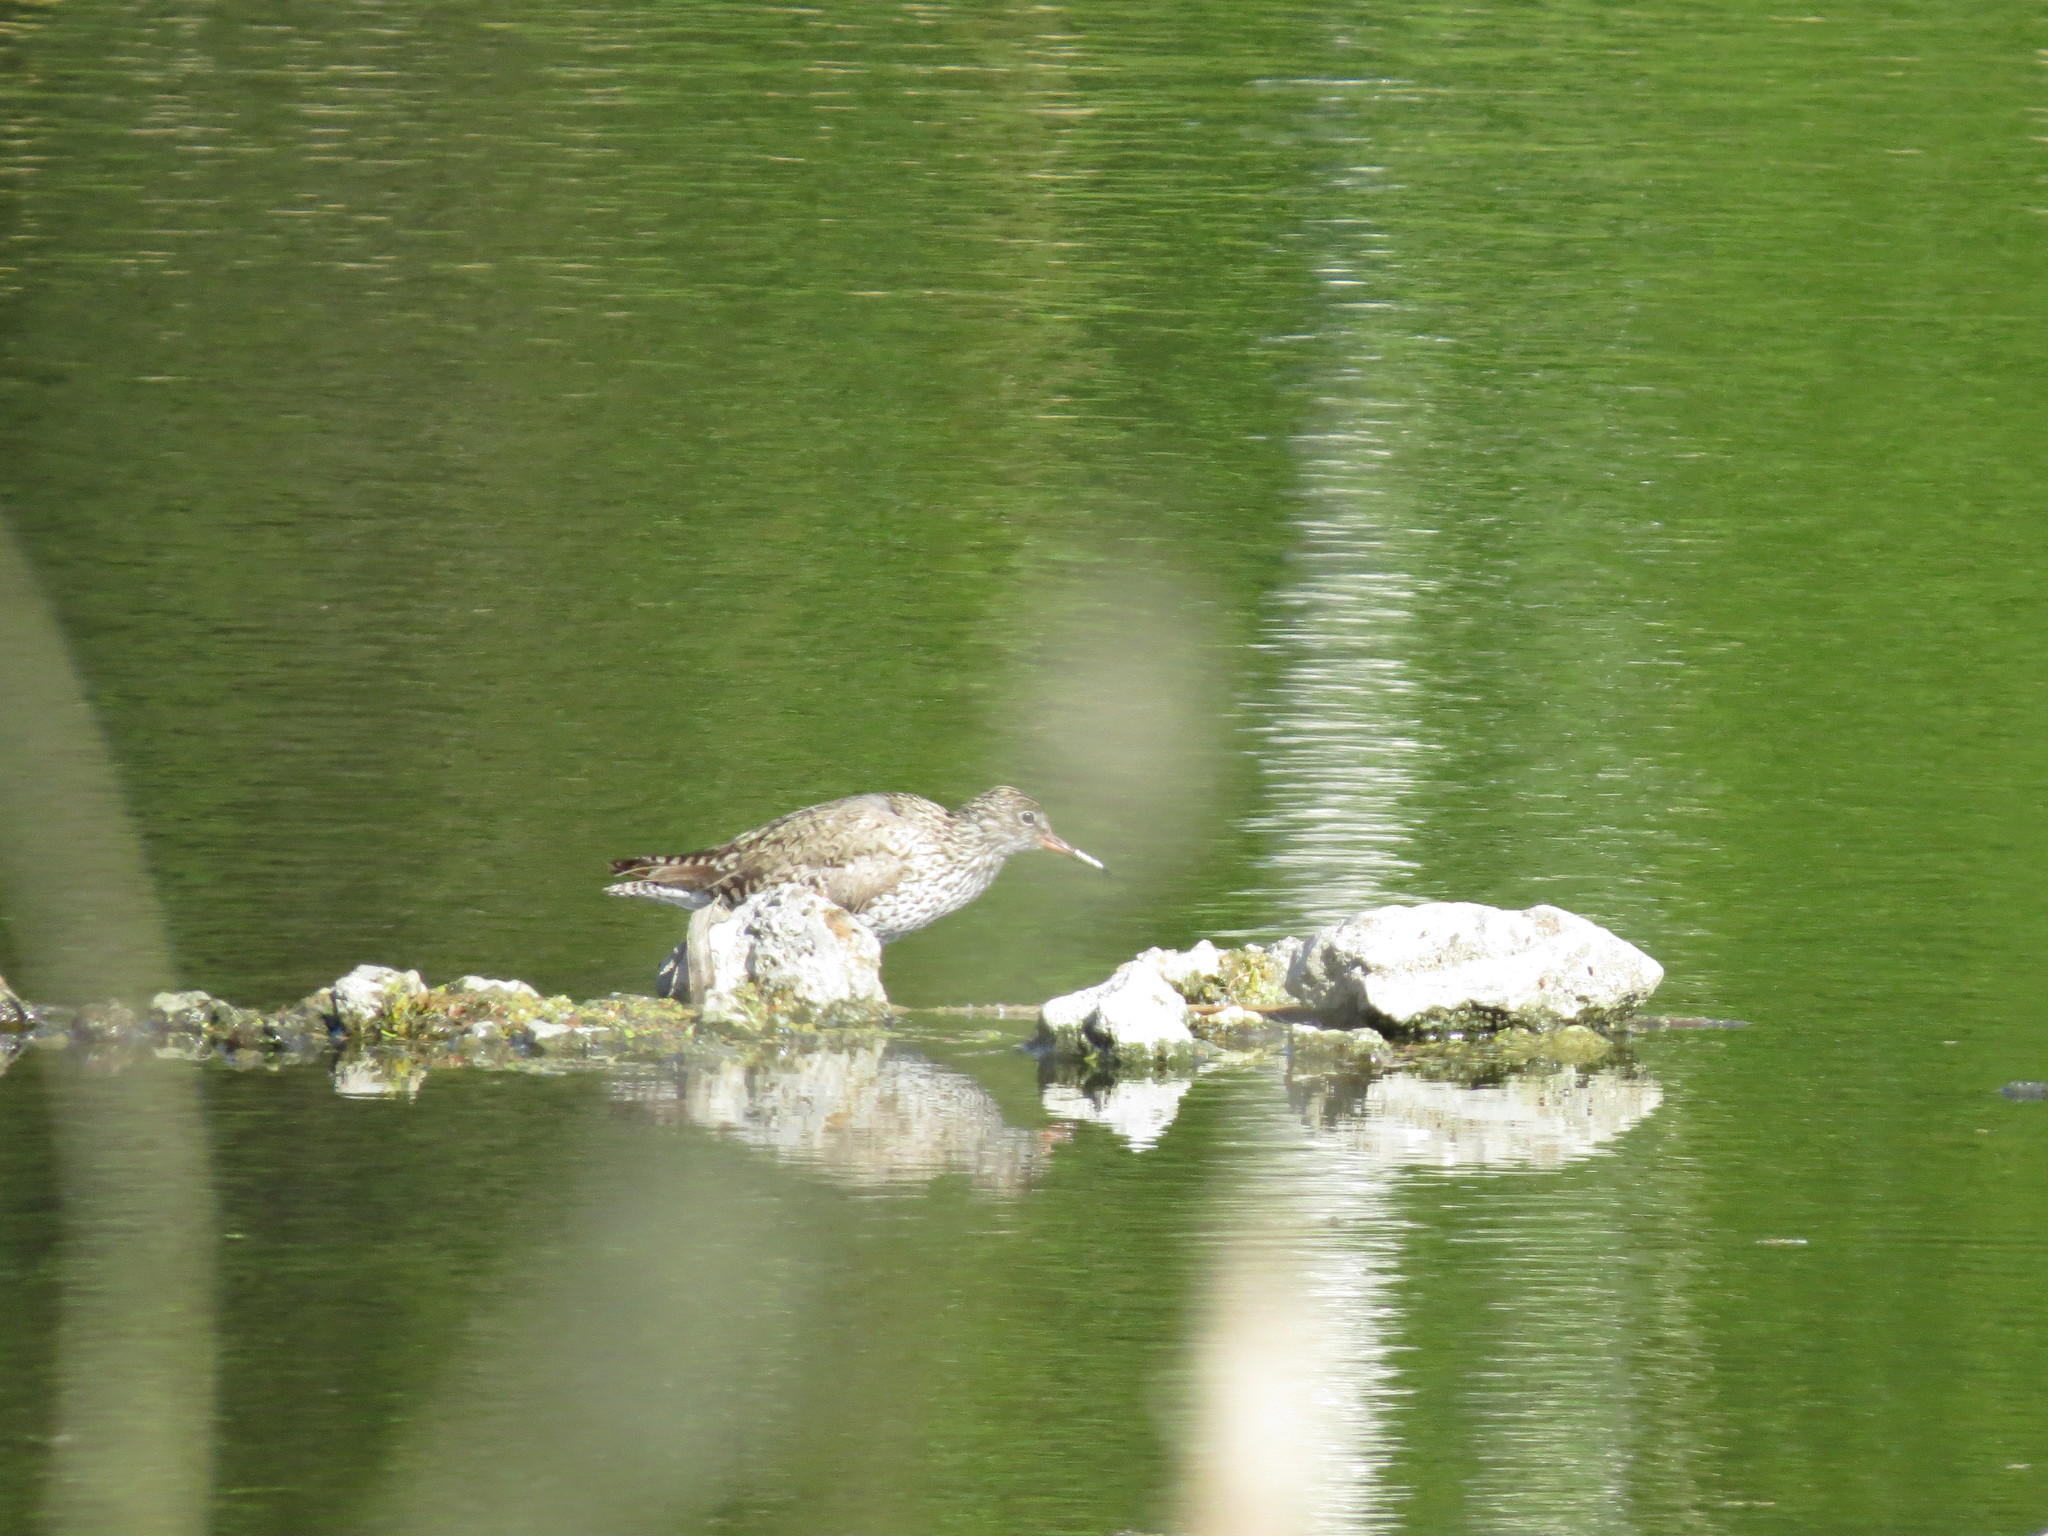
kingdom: Animalia
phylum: Chordata
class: Aves
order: Charadriiformes
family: Scolopacidae
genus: Tringa
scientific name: Tringa totanus
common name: Common redshank
